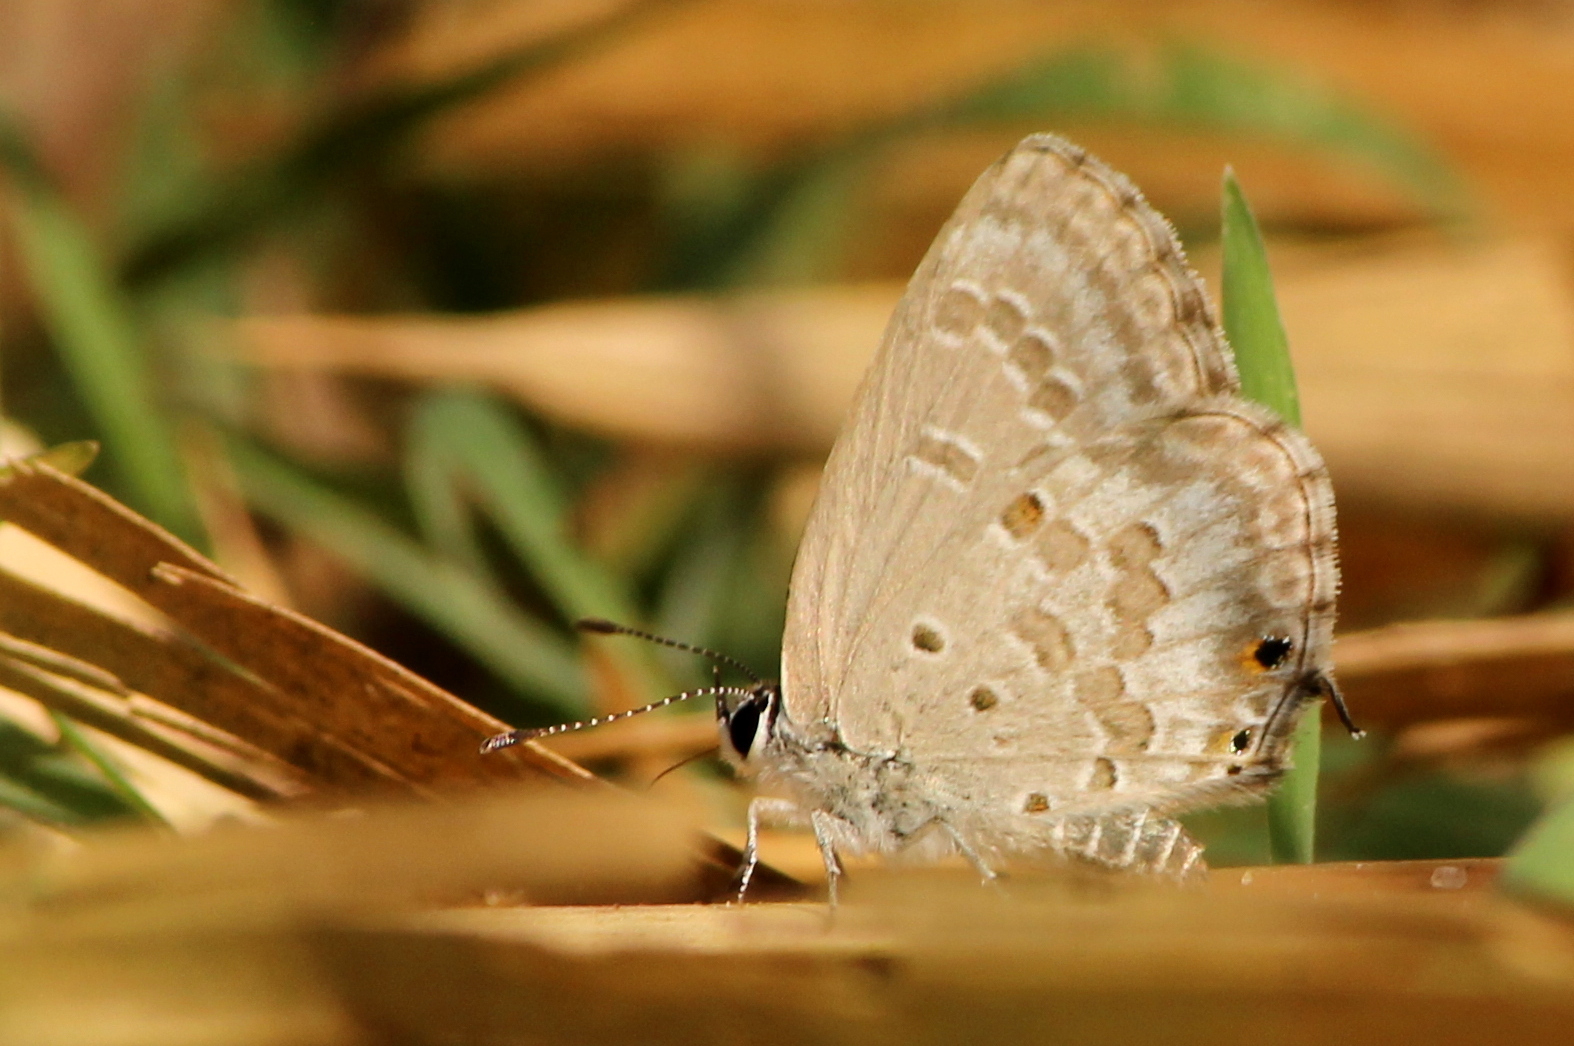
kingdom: Animalia
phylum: Arthropoda
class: Insecta
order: Lepidoptera
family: Lycaenidae
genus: Luthrodes
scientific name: Luthrodes pandava
